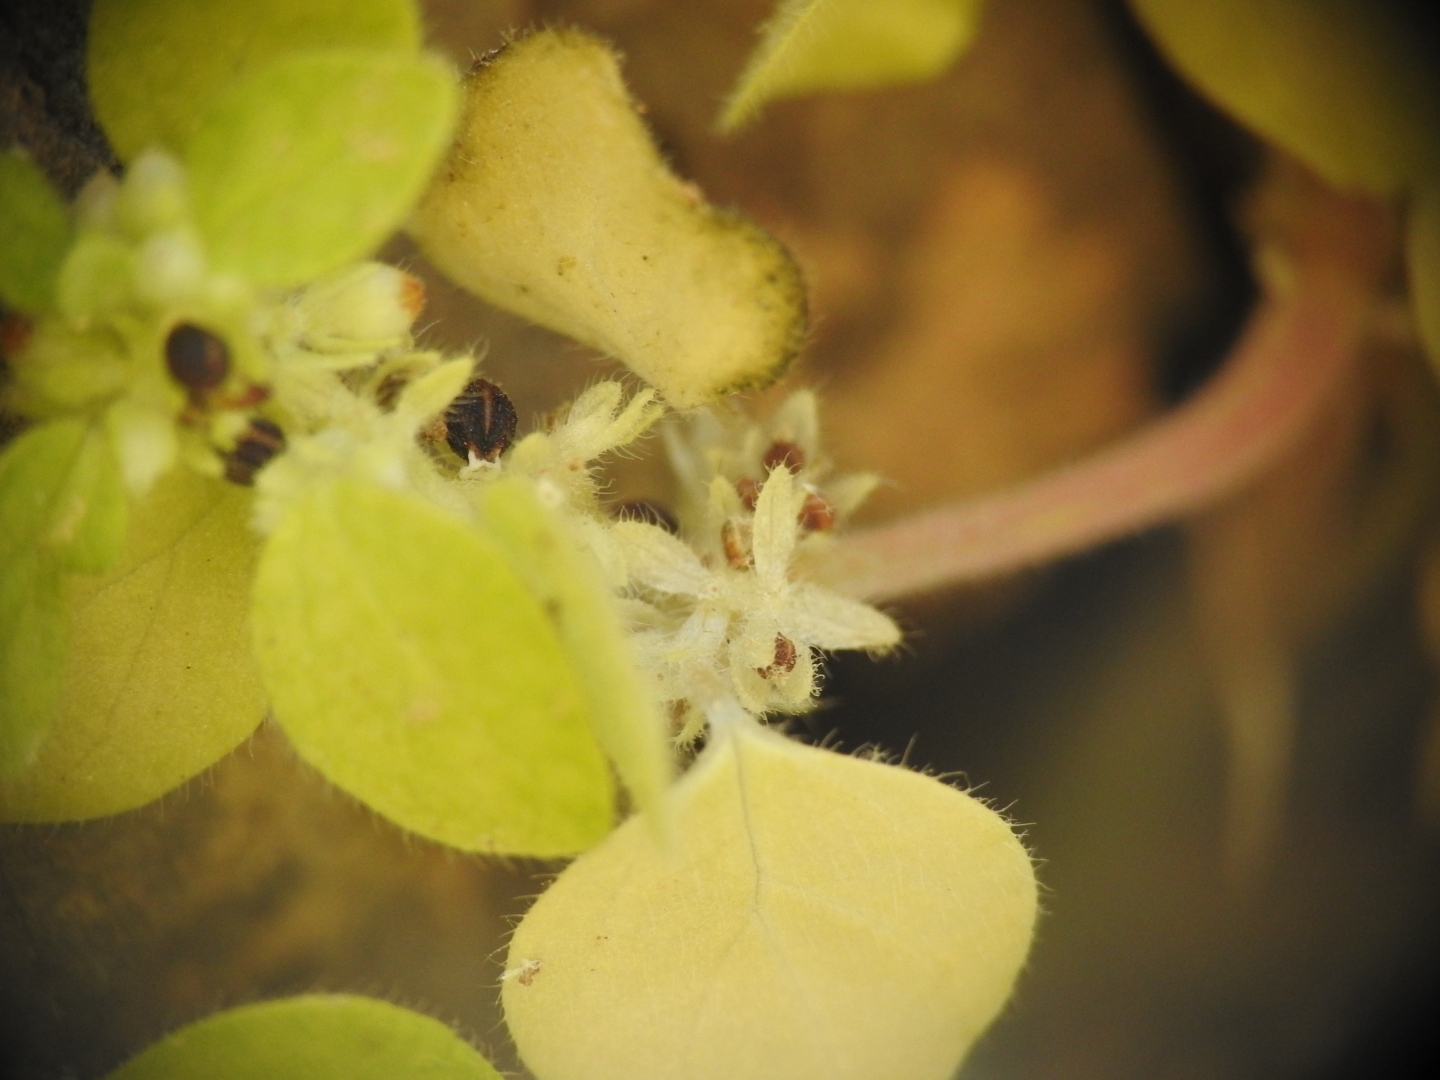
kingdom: Plantae
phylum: Tracheophyta
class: Magnoliopsida
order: Rosales
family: Urticaceae
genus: Parietaria
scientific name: Parietaria cretica
